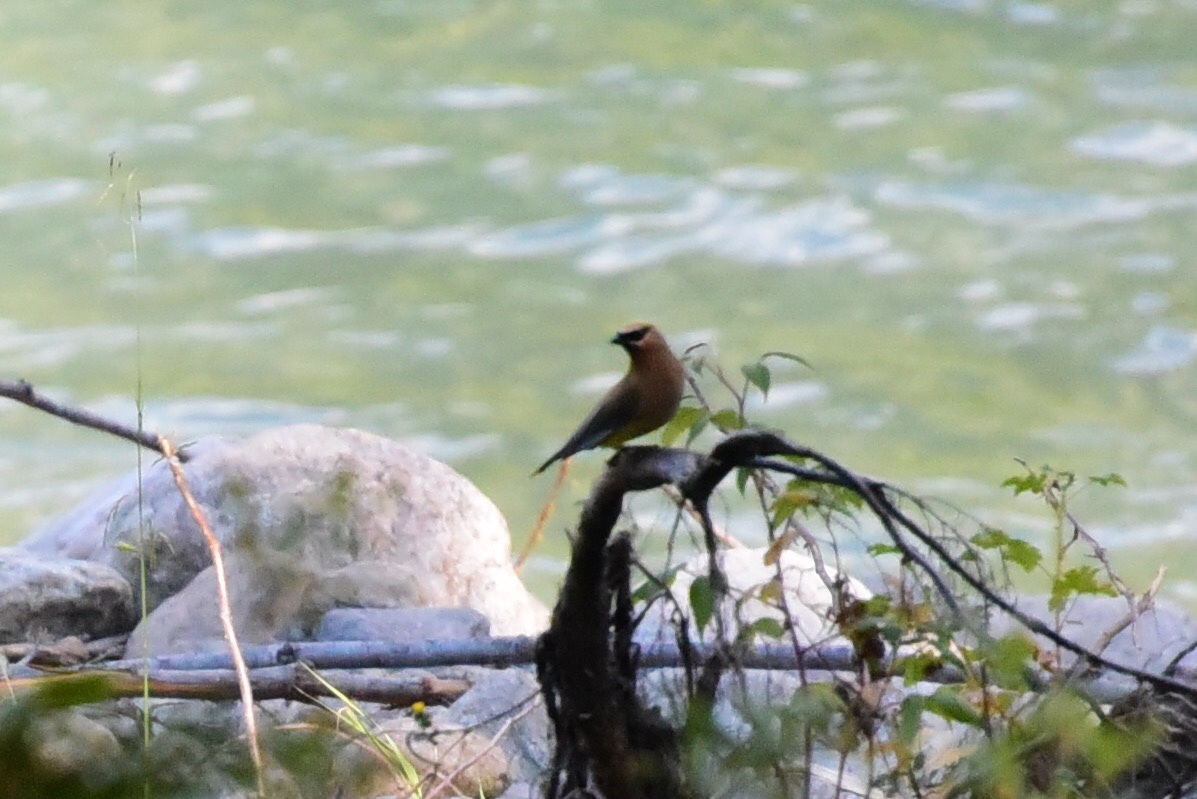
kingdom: Animalia
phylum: Chordata
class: Aves
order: Passeriformes
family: Bombycillidae
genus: Bombycilla
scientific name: Bombycilla cedrorum
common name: Cedar waxwing
